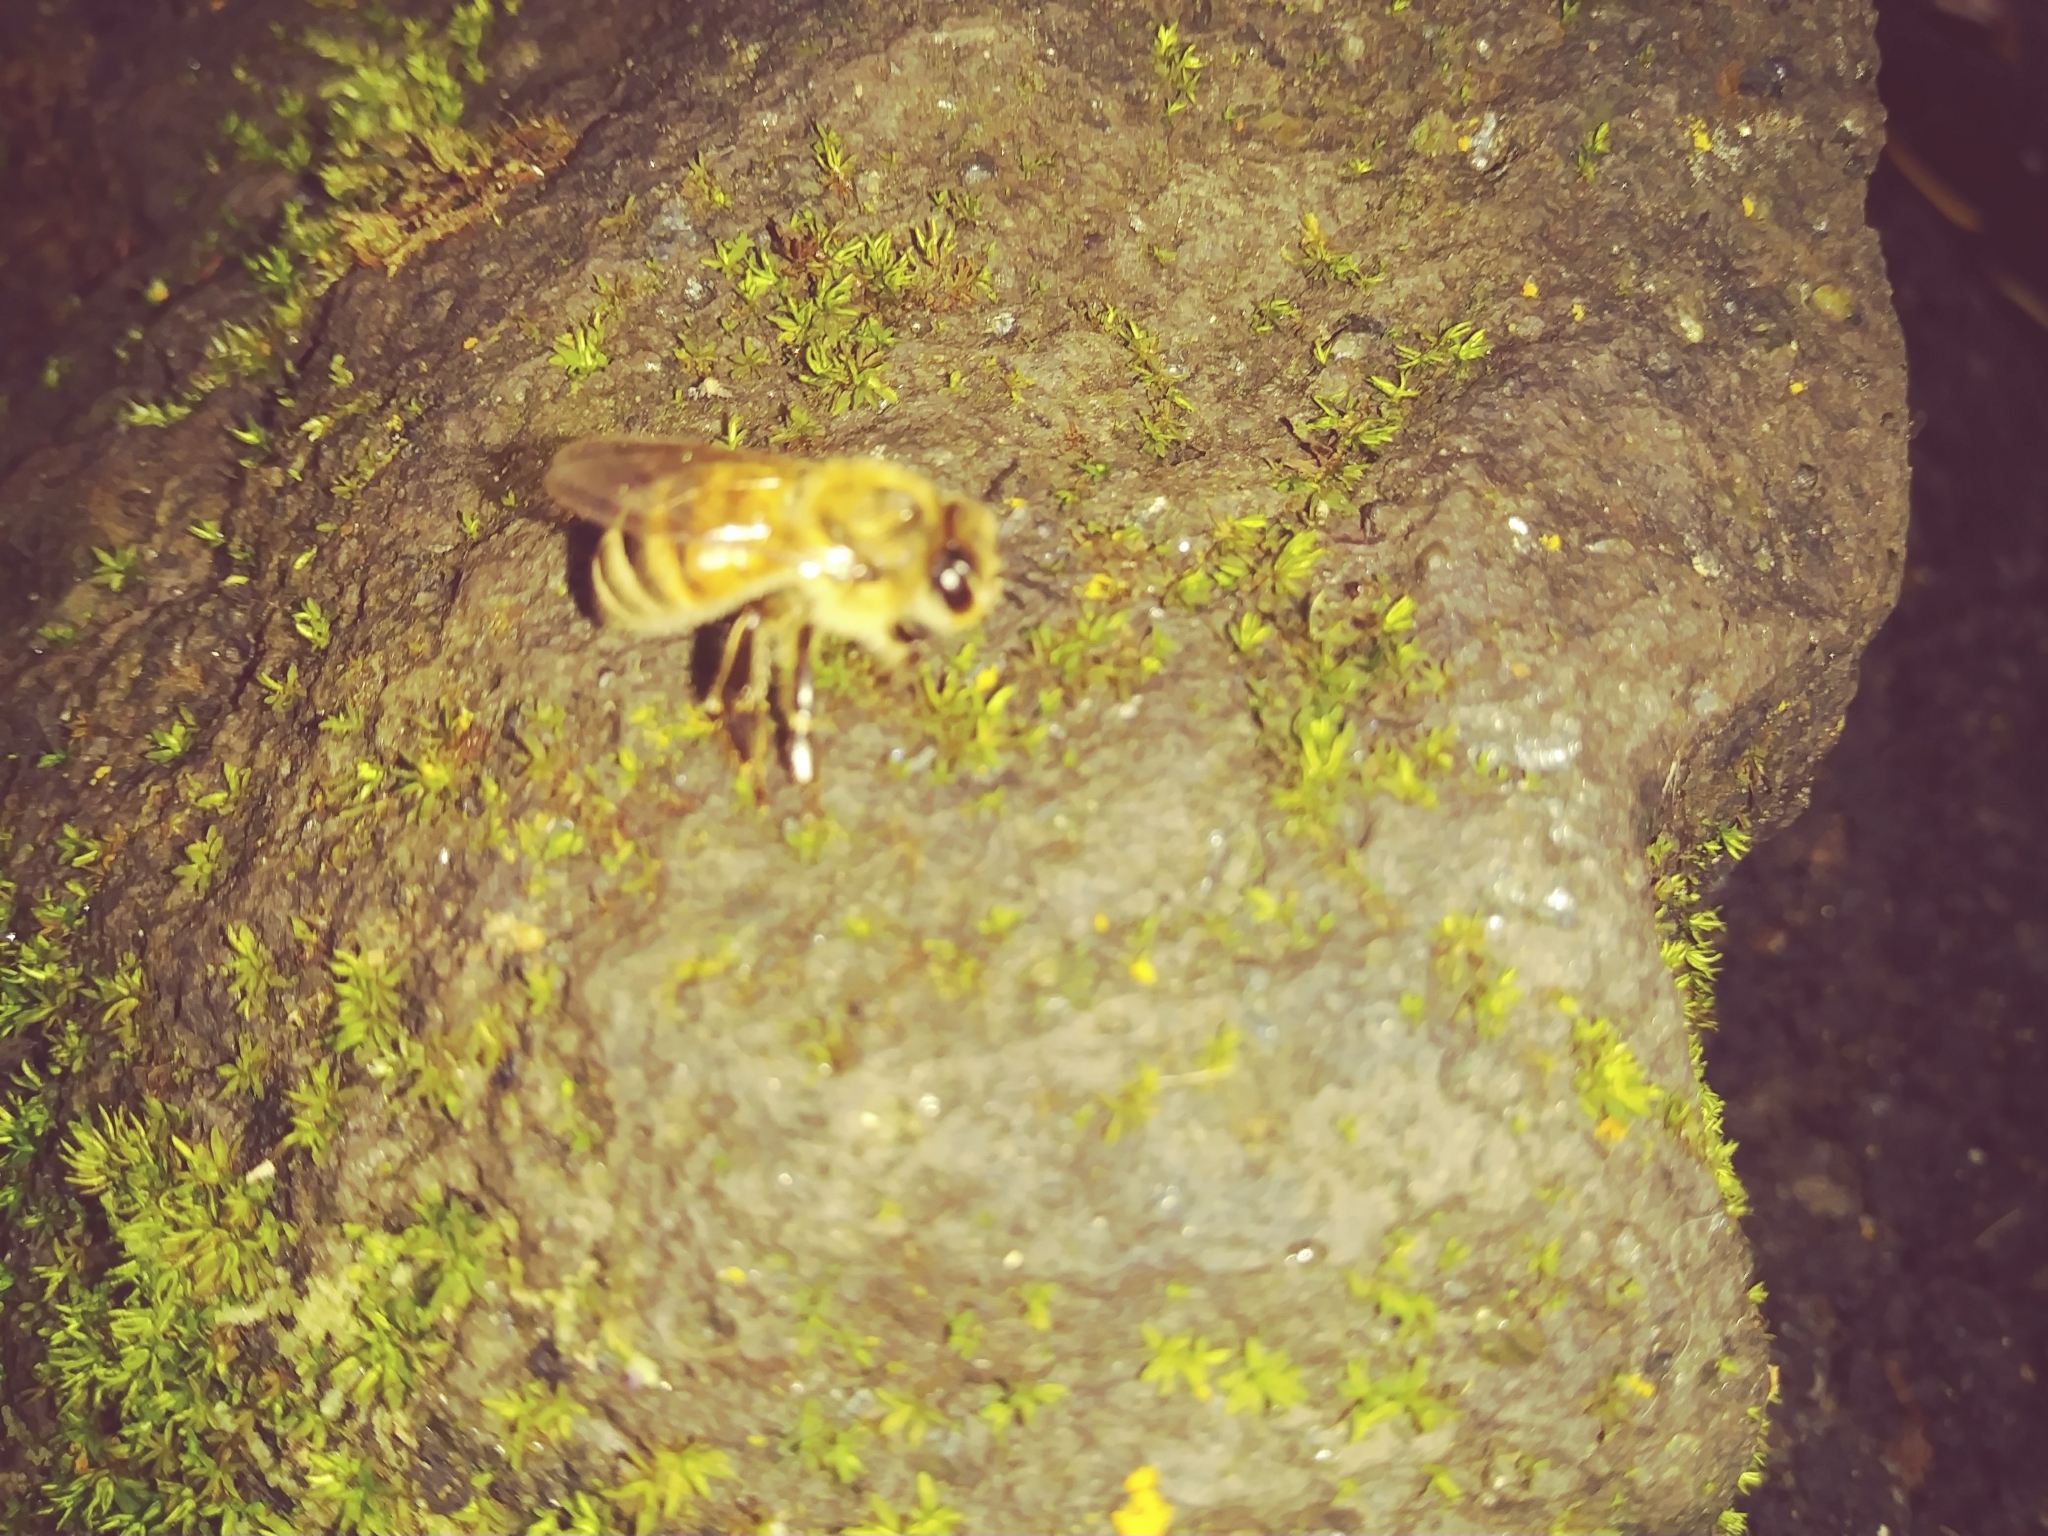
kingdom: Animalia
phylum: Arthropoda
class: Insecta
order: Hymenoptera
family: Apidae
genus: Apis
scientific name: Apis mellifera
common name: Honey bee
